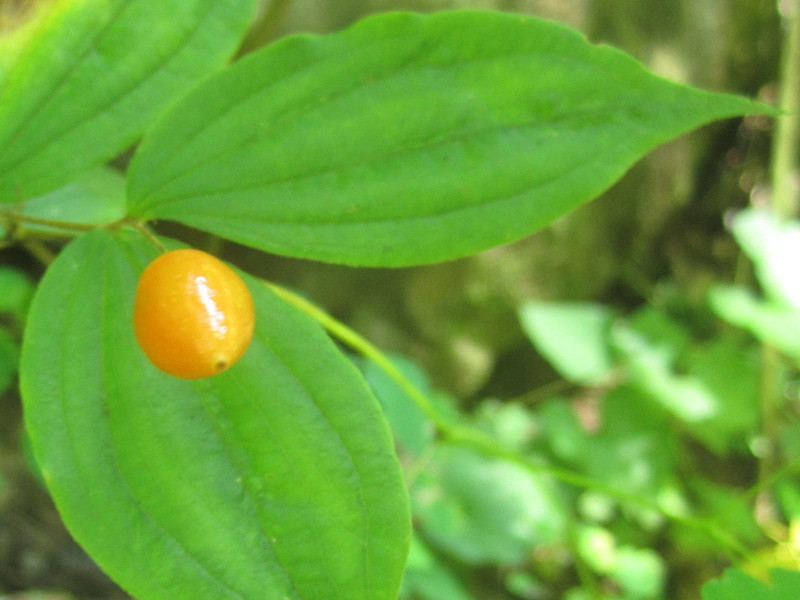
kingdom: Plantae
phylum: Tracheophyta
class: Liliopsida
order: Liliales
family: Liliaceae
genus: Prosartes
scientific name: Prosartes lanuginosa
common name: Hairy mandarin
